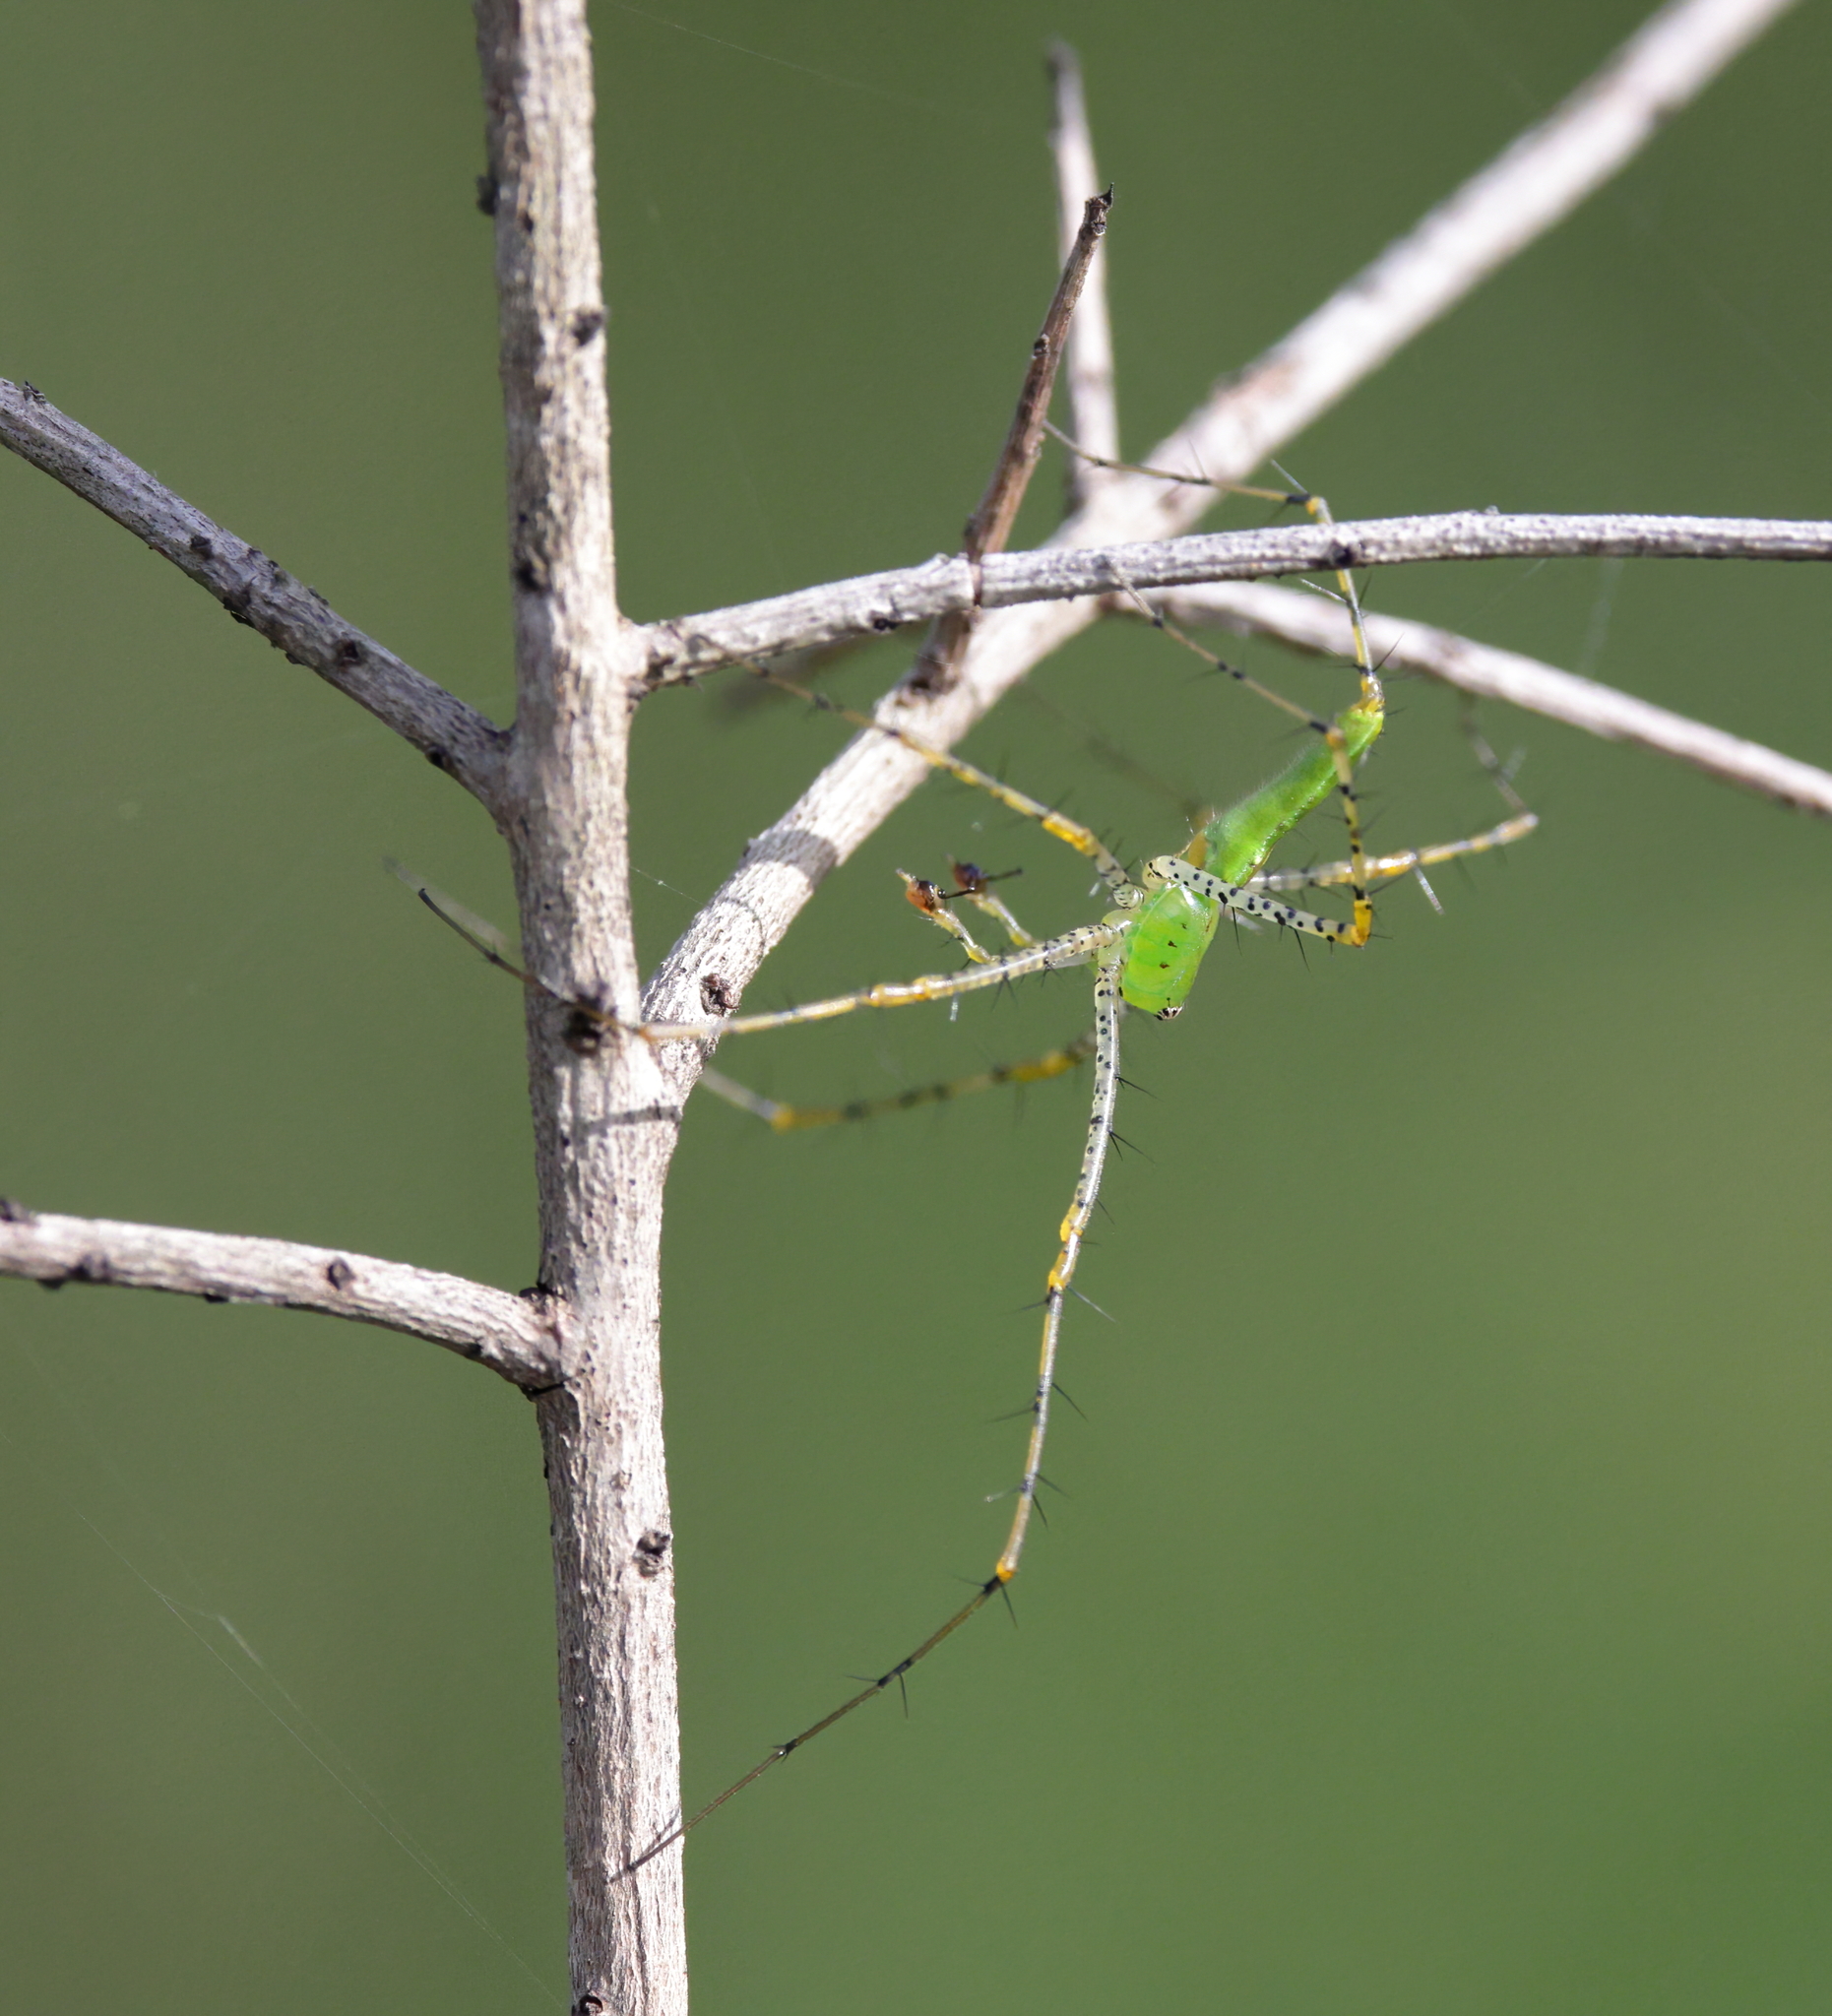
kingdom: Animalia
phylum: Arthropoda
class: Arachnida
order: Araneae
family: Oxyopidae
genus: Peucetia
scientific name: Peucetia viridans
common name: Lynx spiders
